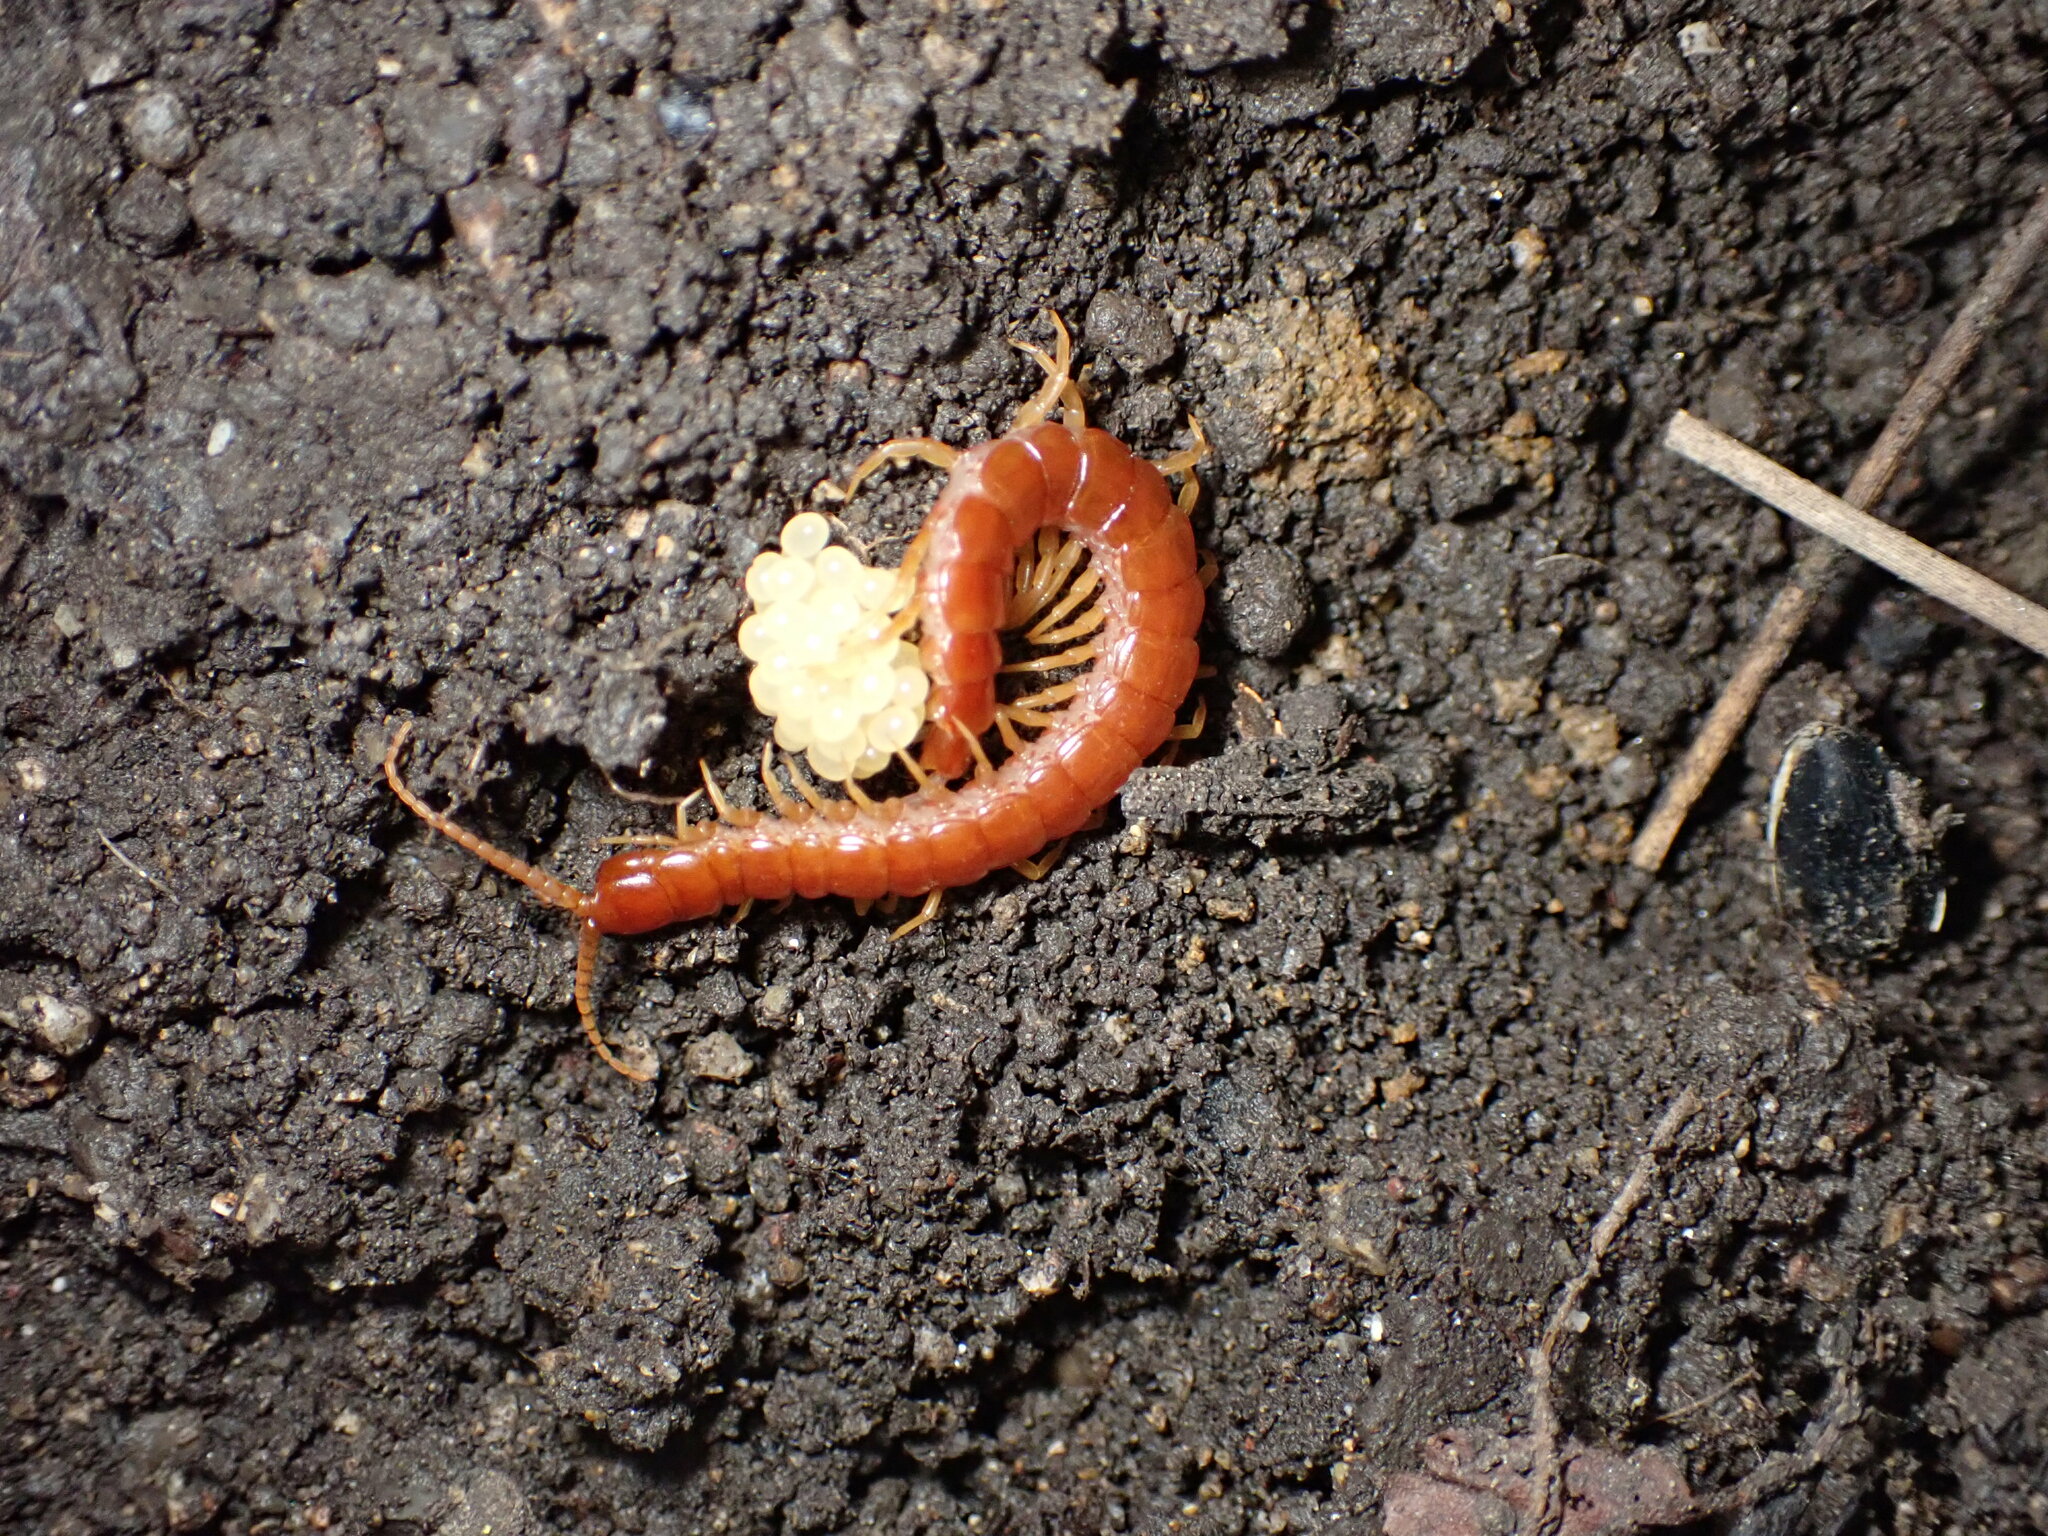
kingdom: Animalia
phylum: Arthropoda
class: Chilopoda
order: Scolopendromorpha
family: Scolopocryptopidae
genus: Scolopocryptops
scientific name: Scolopocryptops spinicaudus
